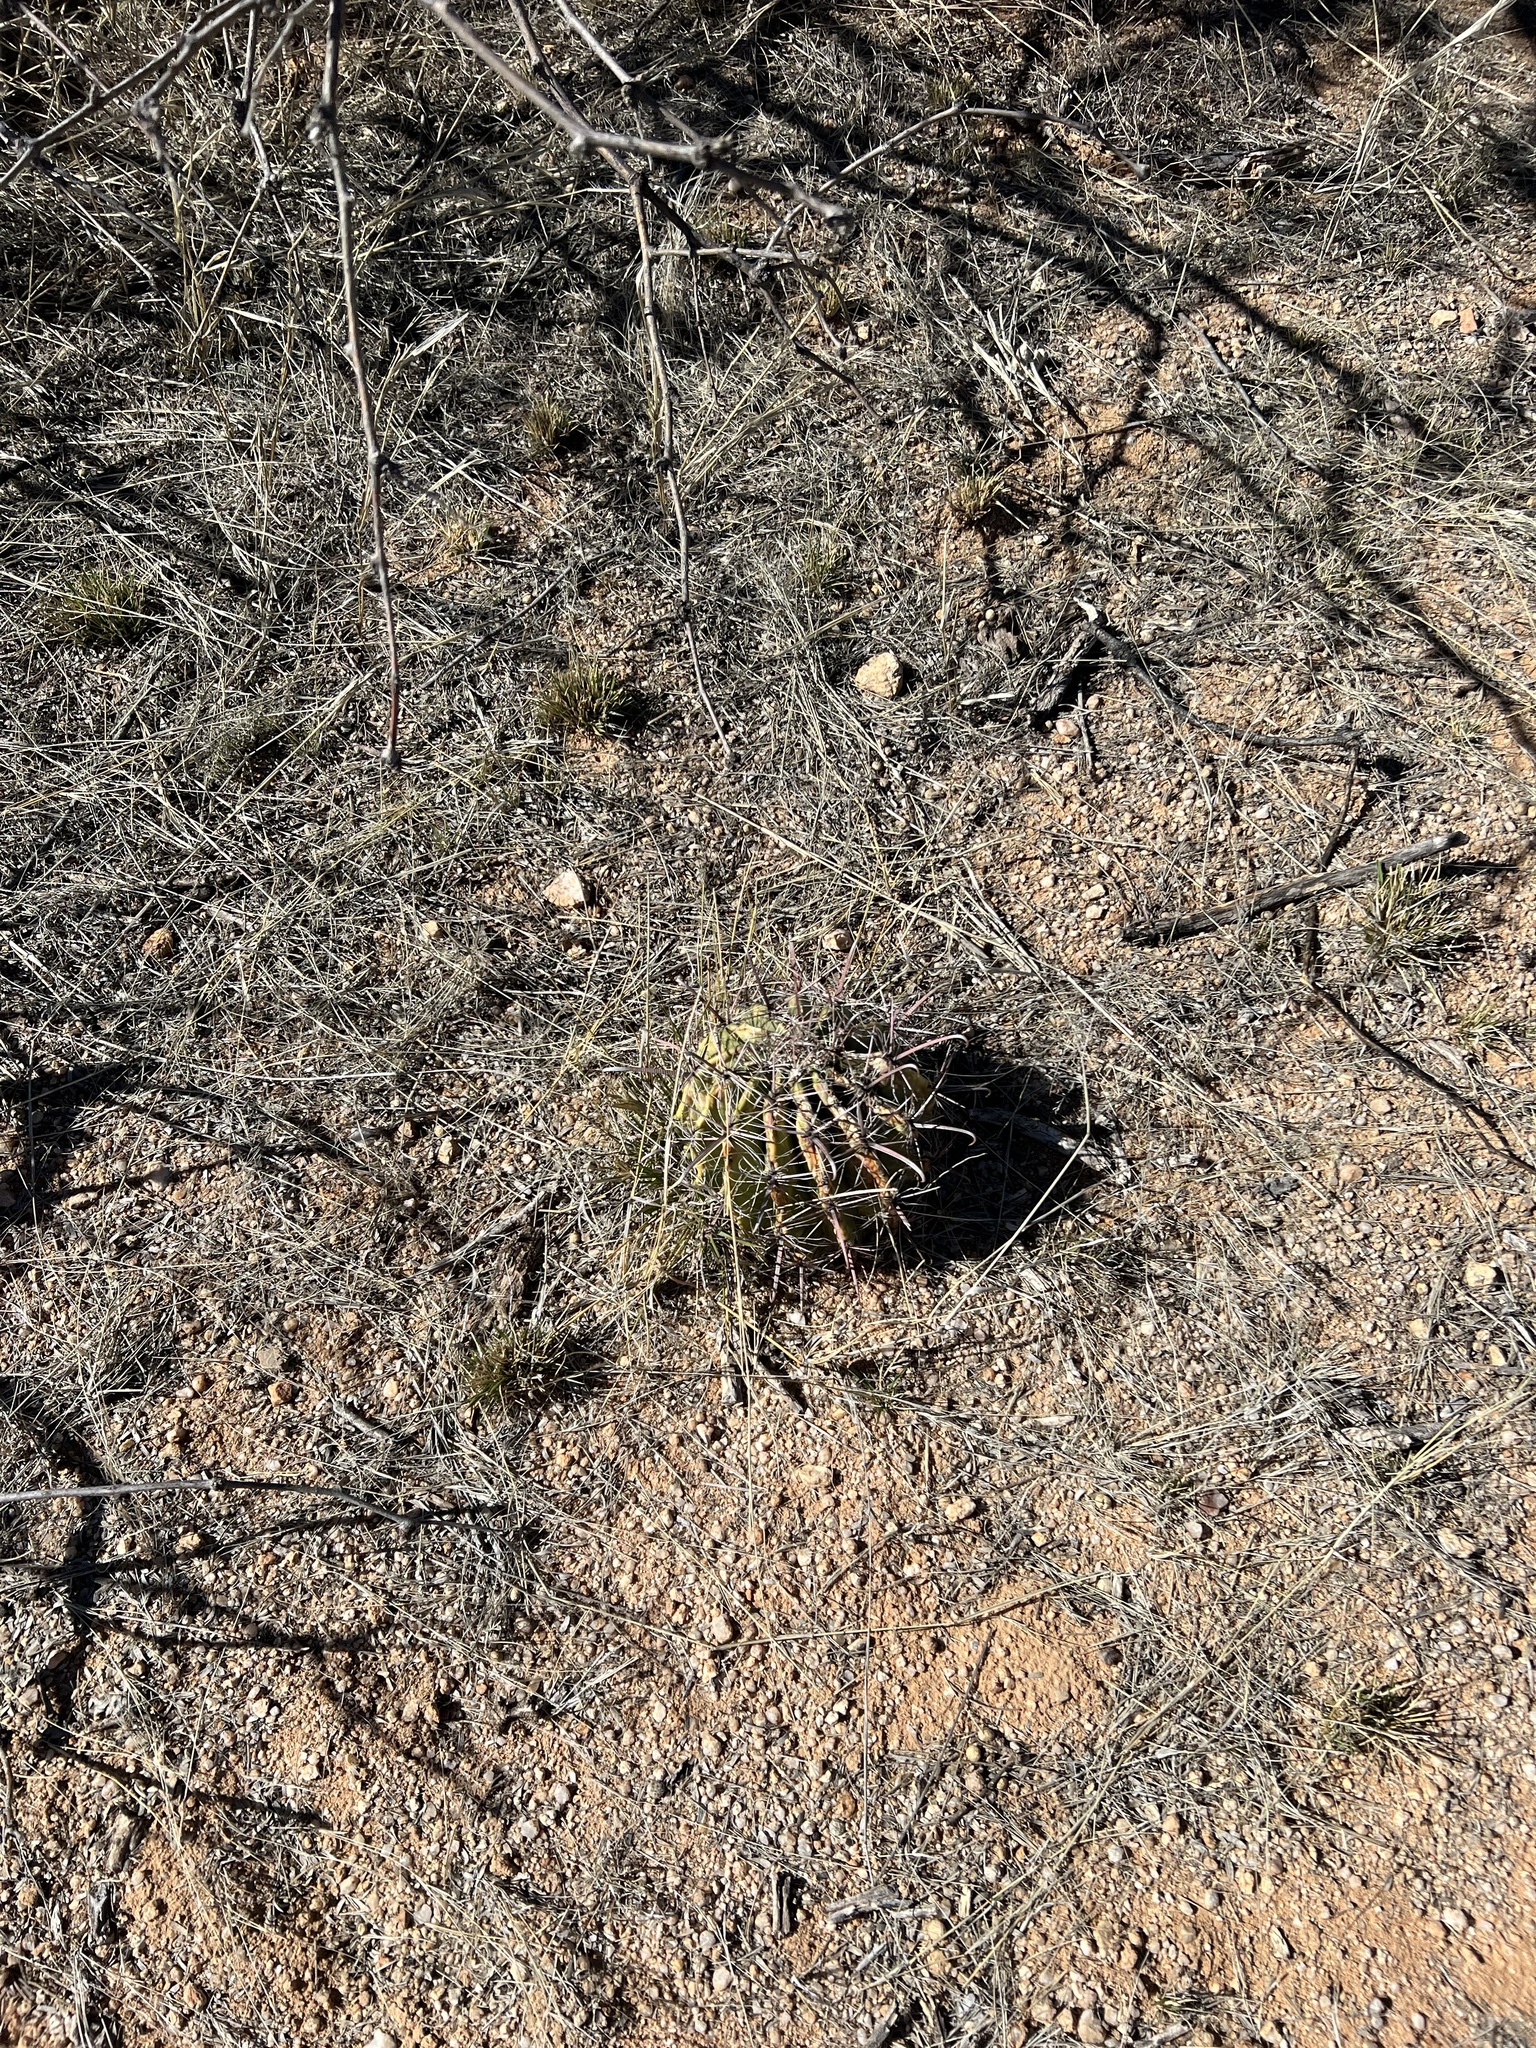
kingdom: Plantae
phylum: Tracheophyta
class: Magnoliopsida
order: Caryophyllales
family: Cactaceae
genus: Ferocactus
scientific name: Ferocactus wislizeni
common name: Candy barrel cactus
